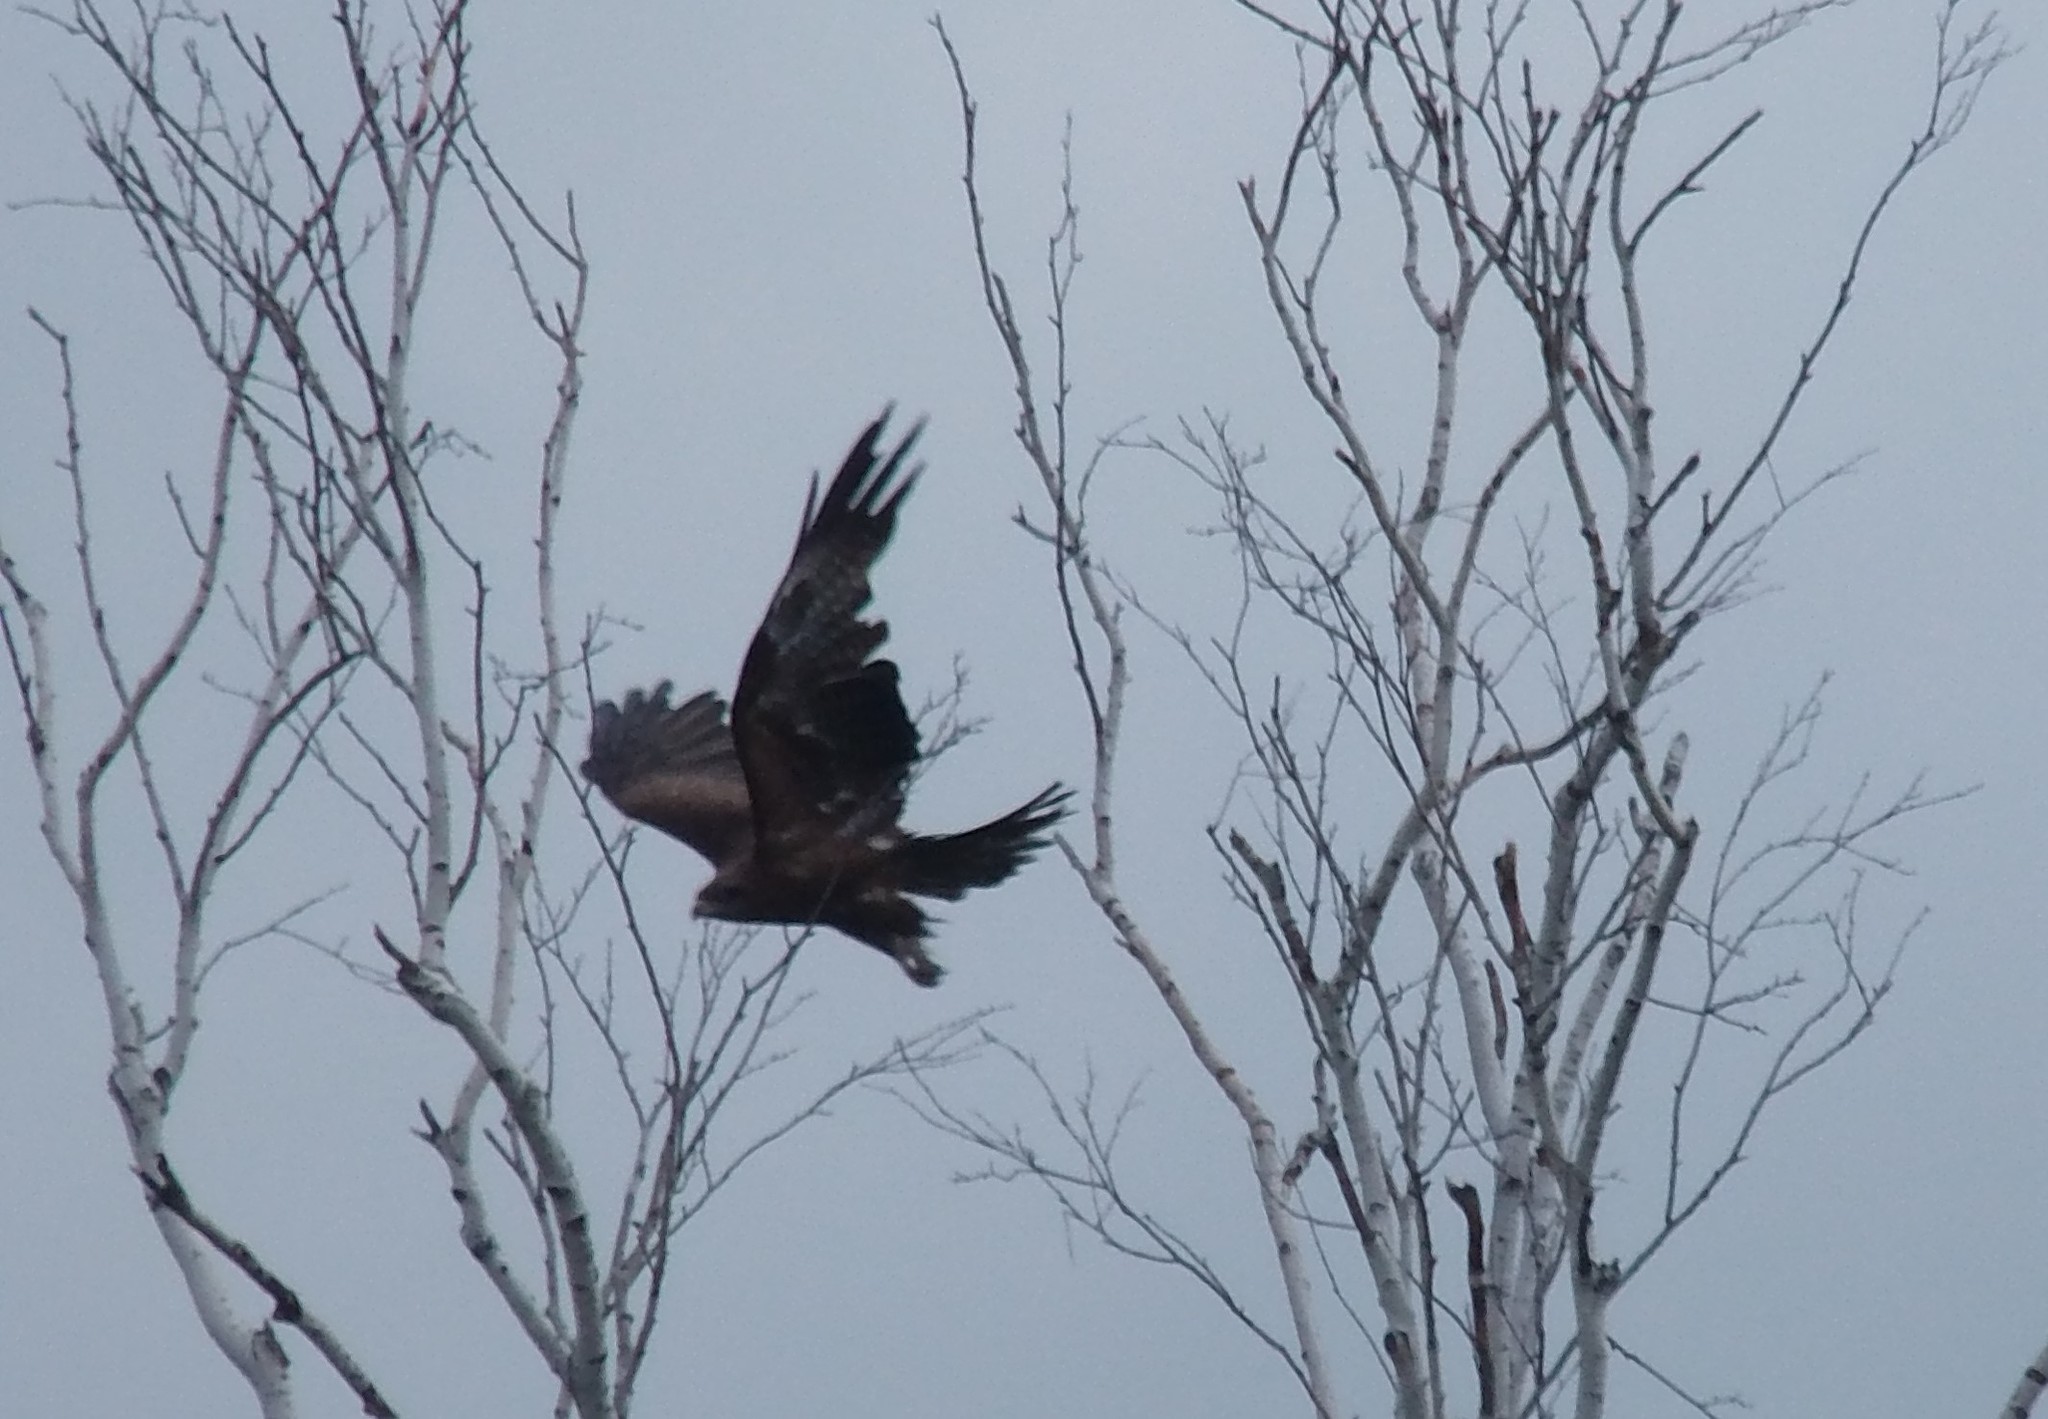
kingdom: Animalia
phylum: Chordata
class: Aves
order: Accipitriformes
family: Accipitridae
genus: Milvus
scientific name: Milvus migrans
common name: Black kite
